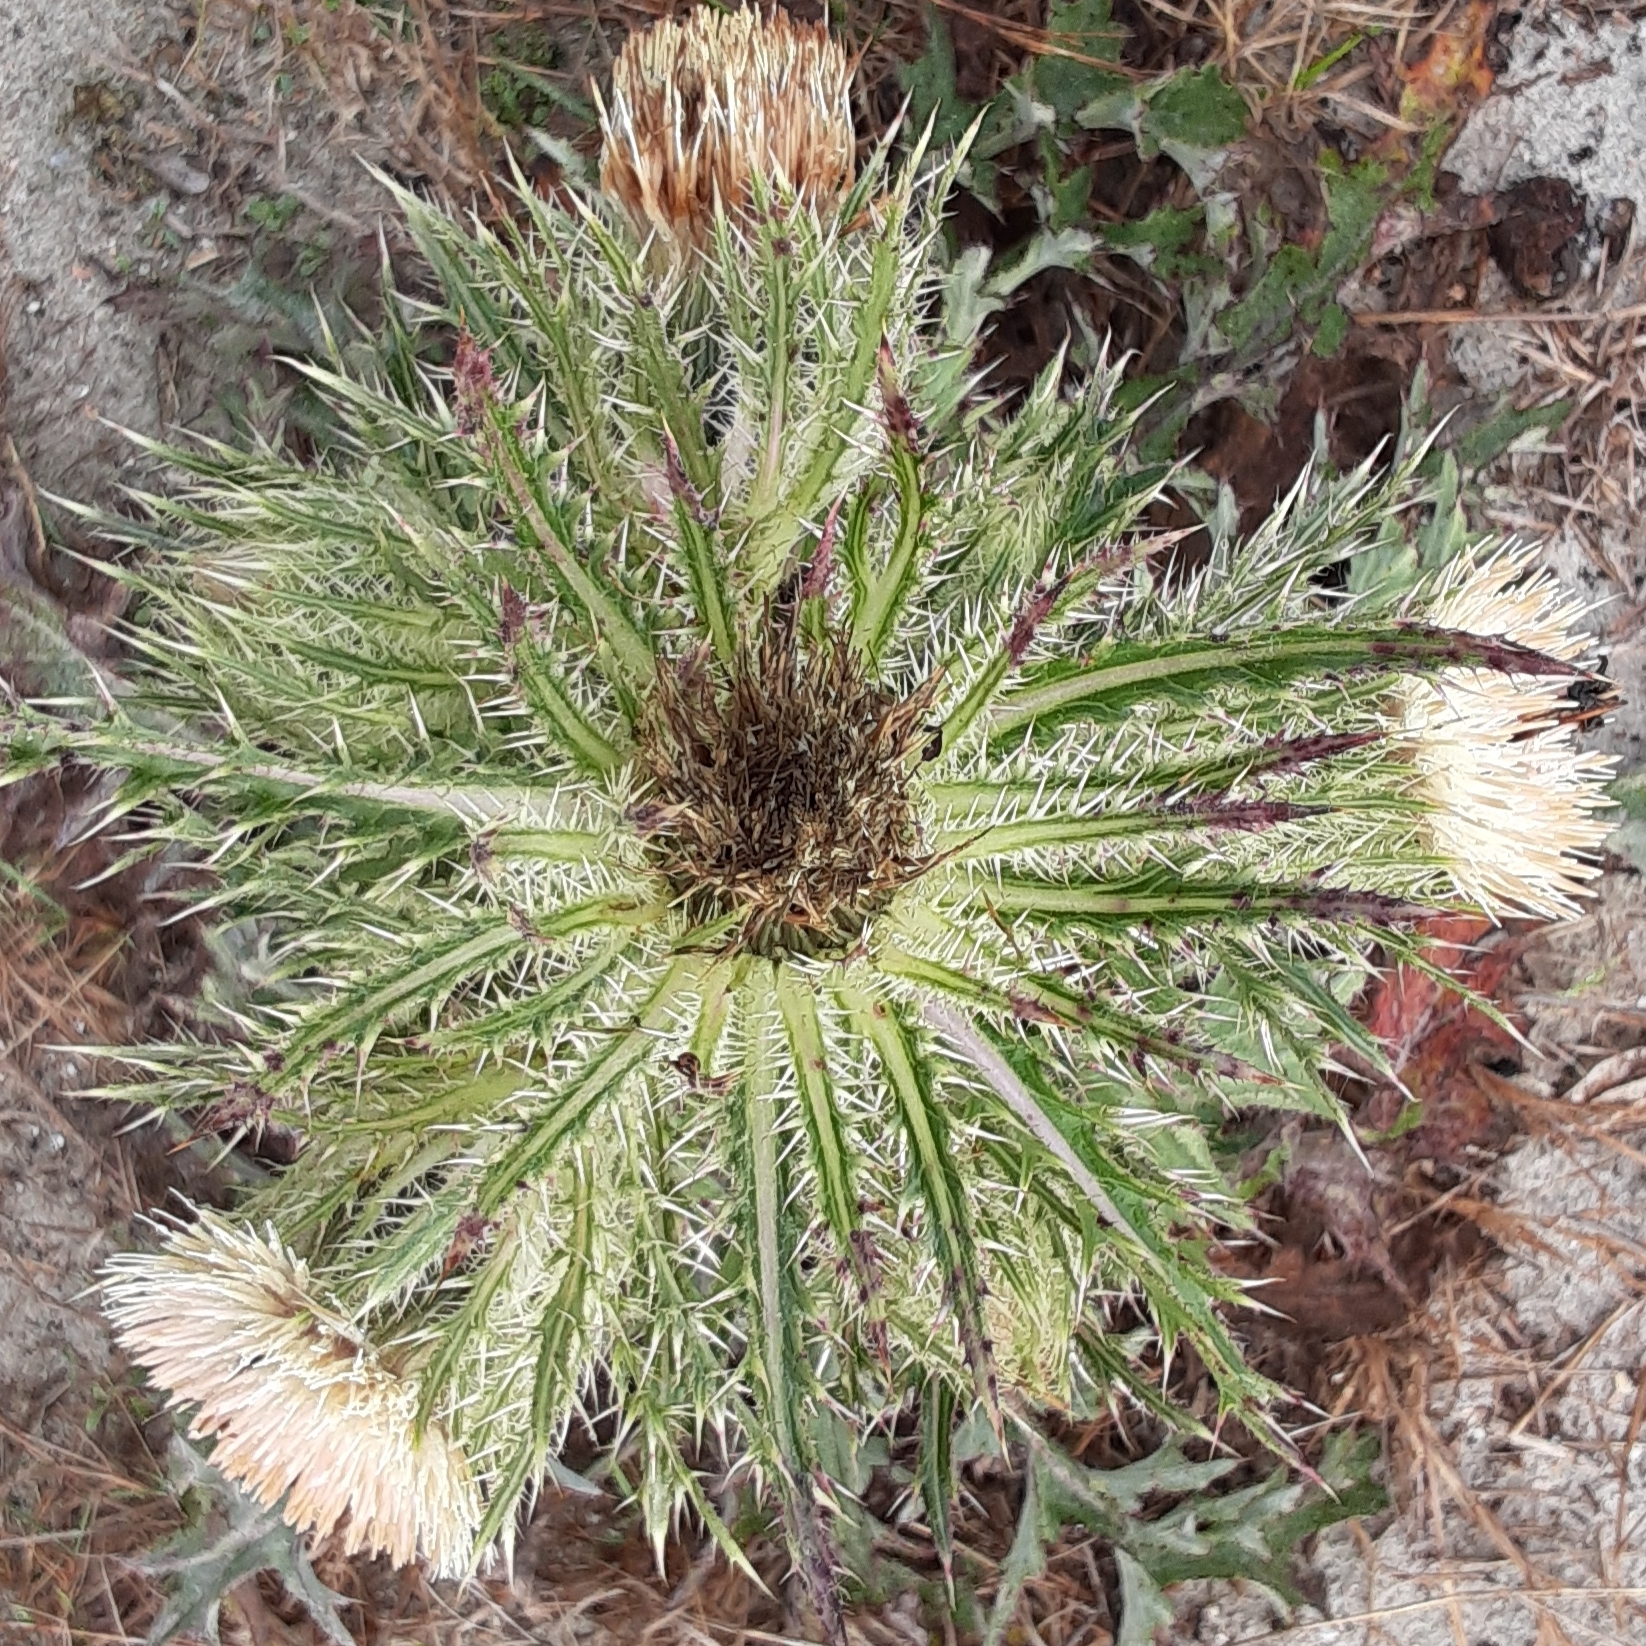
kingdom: Plantae
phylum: Tracheophyta
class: Magnoliopsida
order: Asterales
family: Asteraceae
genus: Cirsium
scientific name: Cirsium horridulum
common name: Bristly thistle
